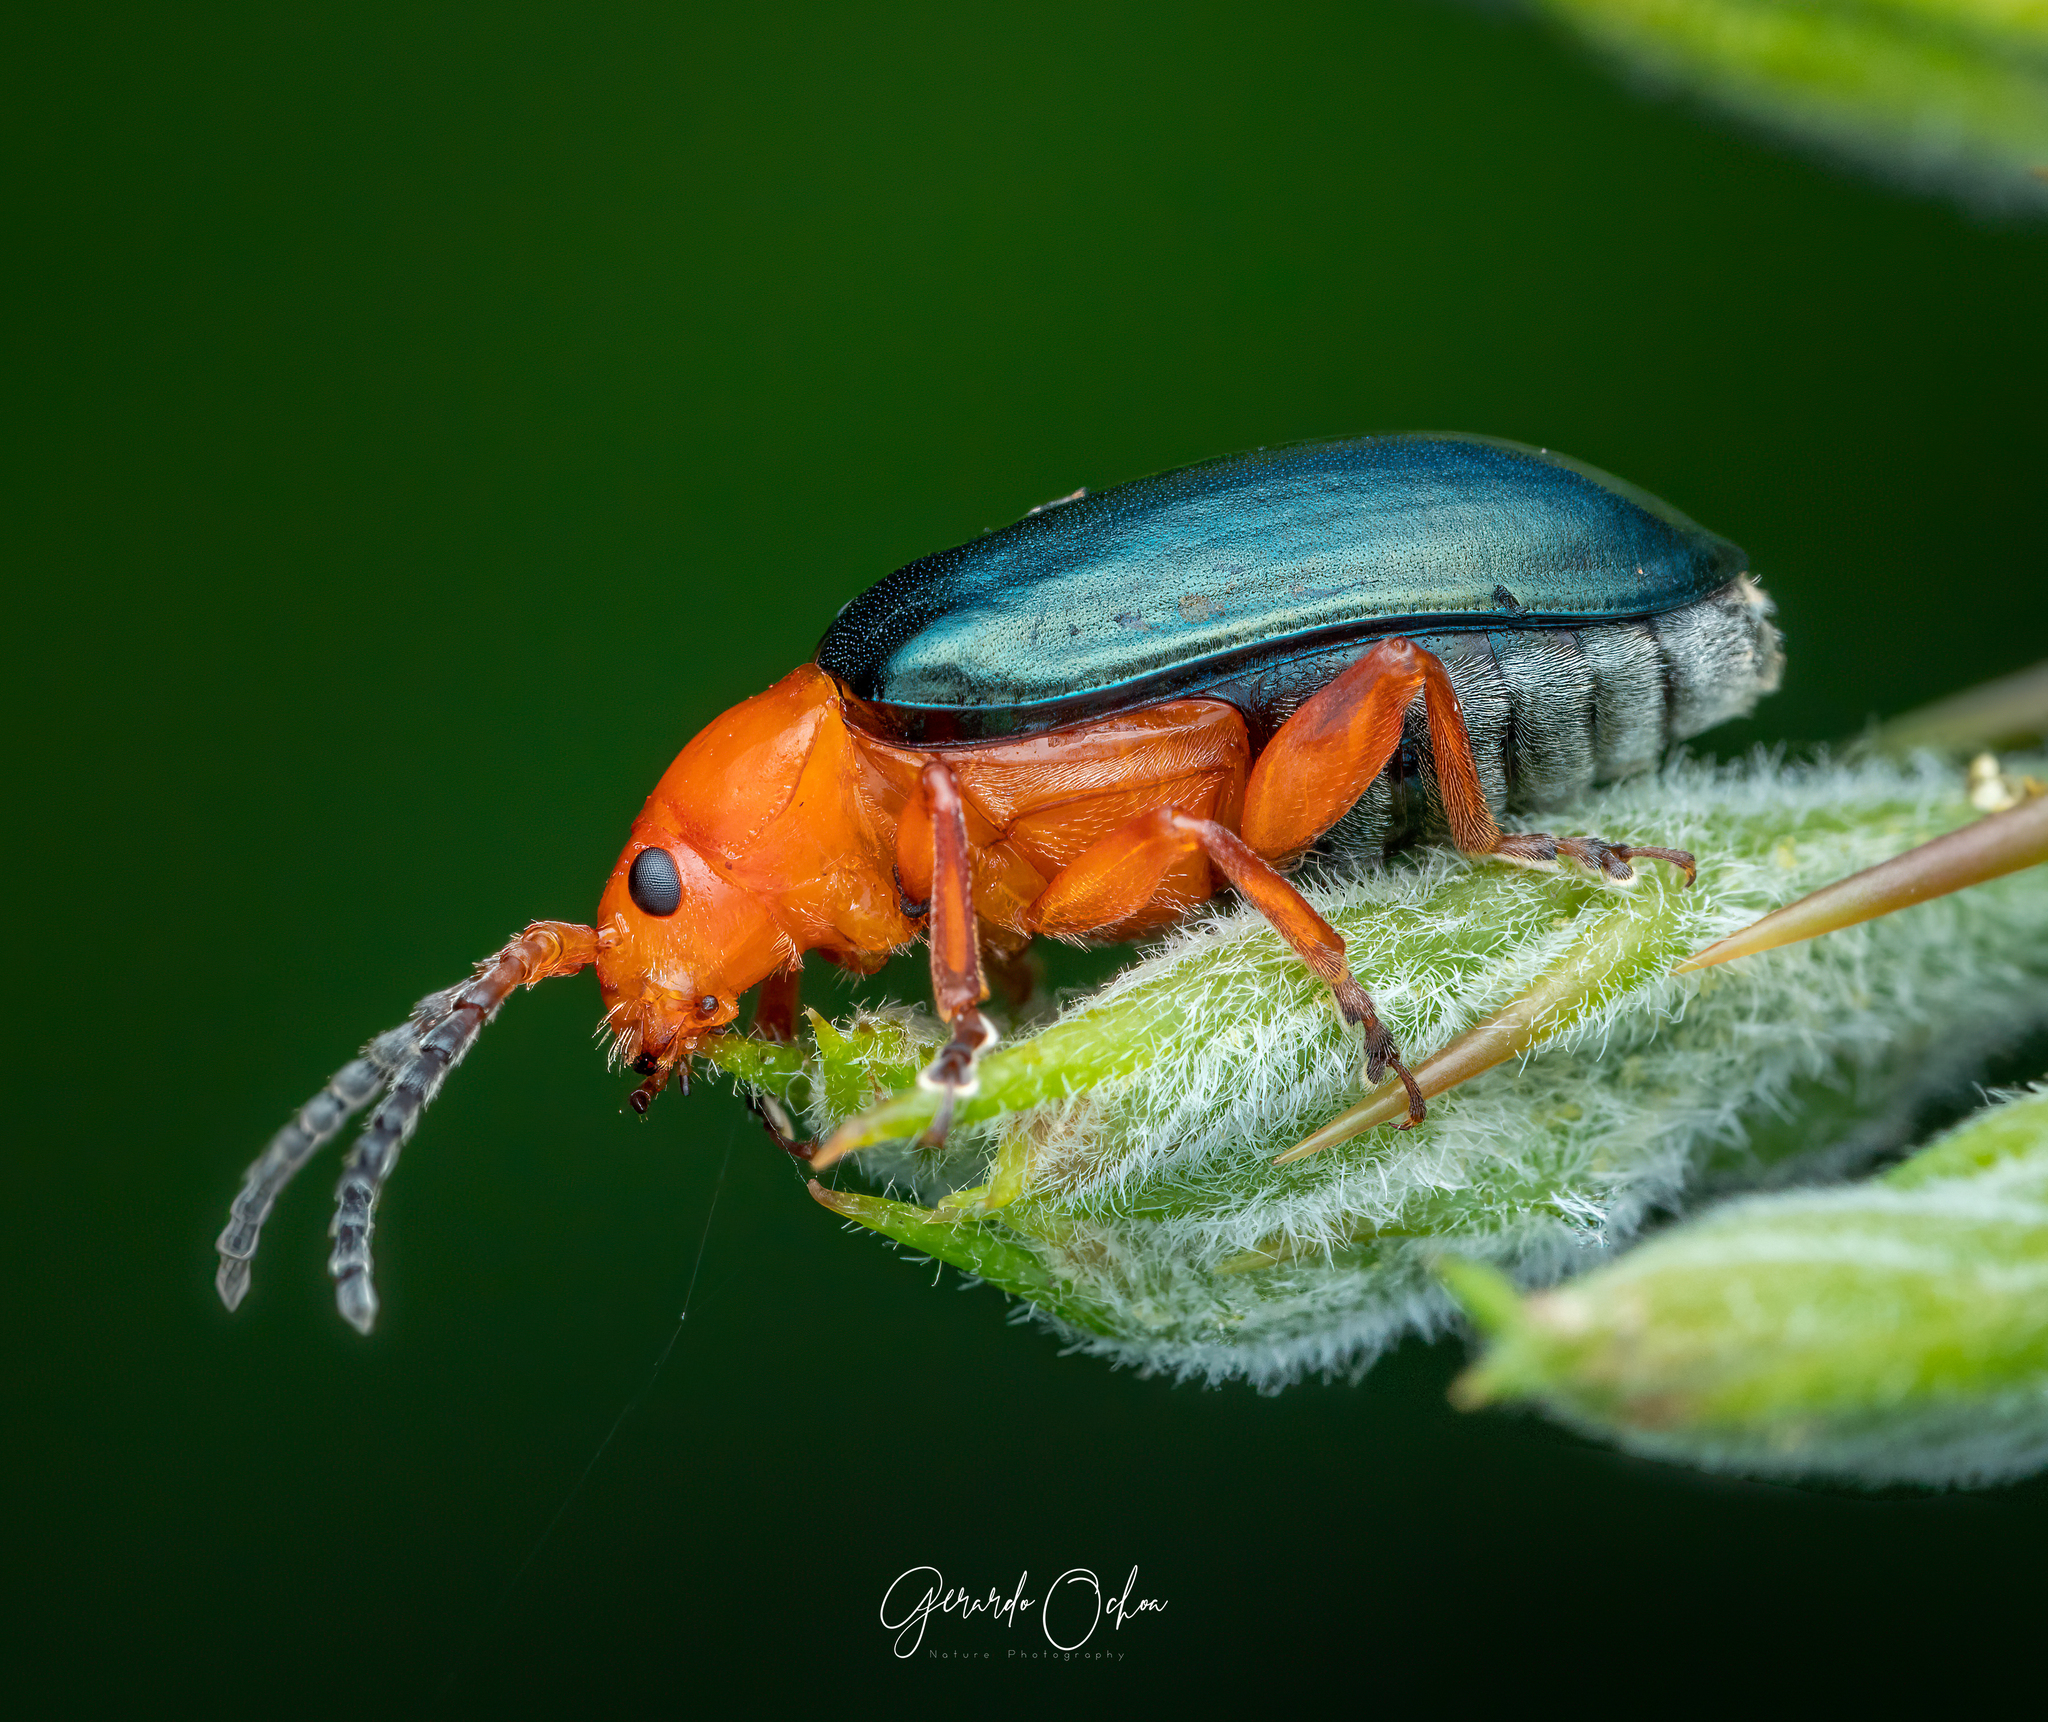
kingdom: Animalia
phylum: Arthropoda
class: Insecta
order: Coleoptera
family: Chrysomelidae
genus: Phrynocepha
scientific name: Phrynocepha
